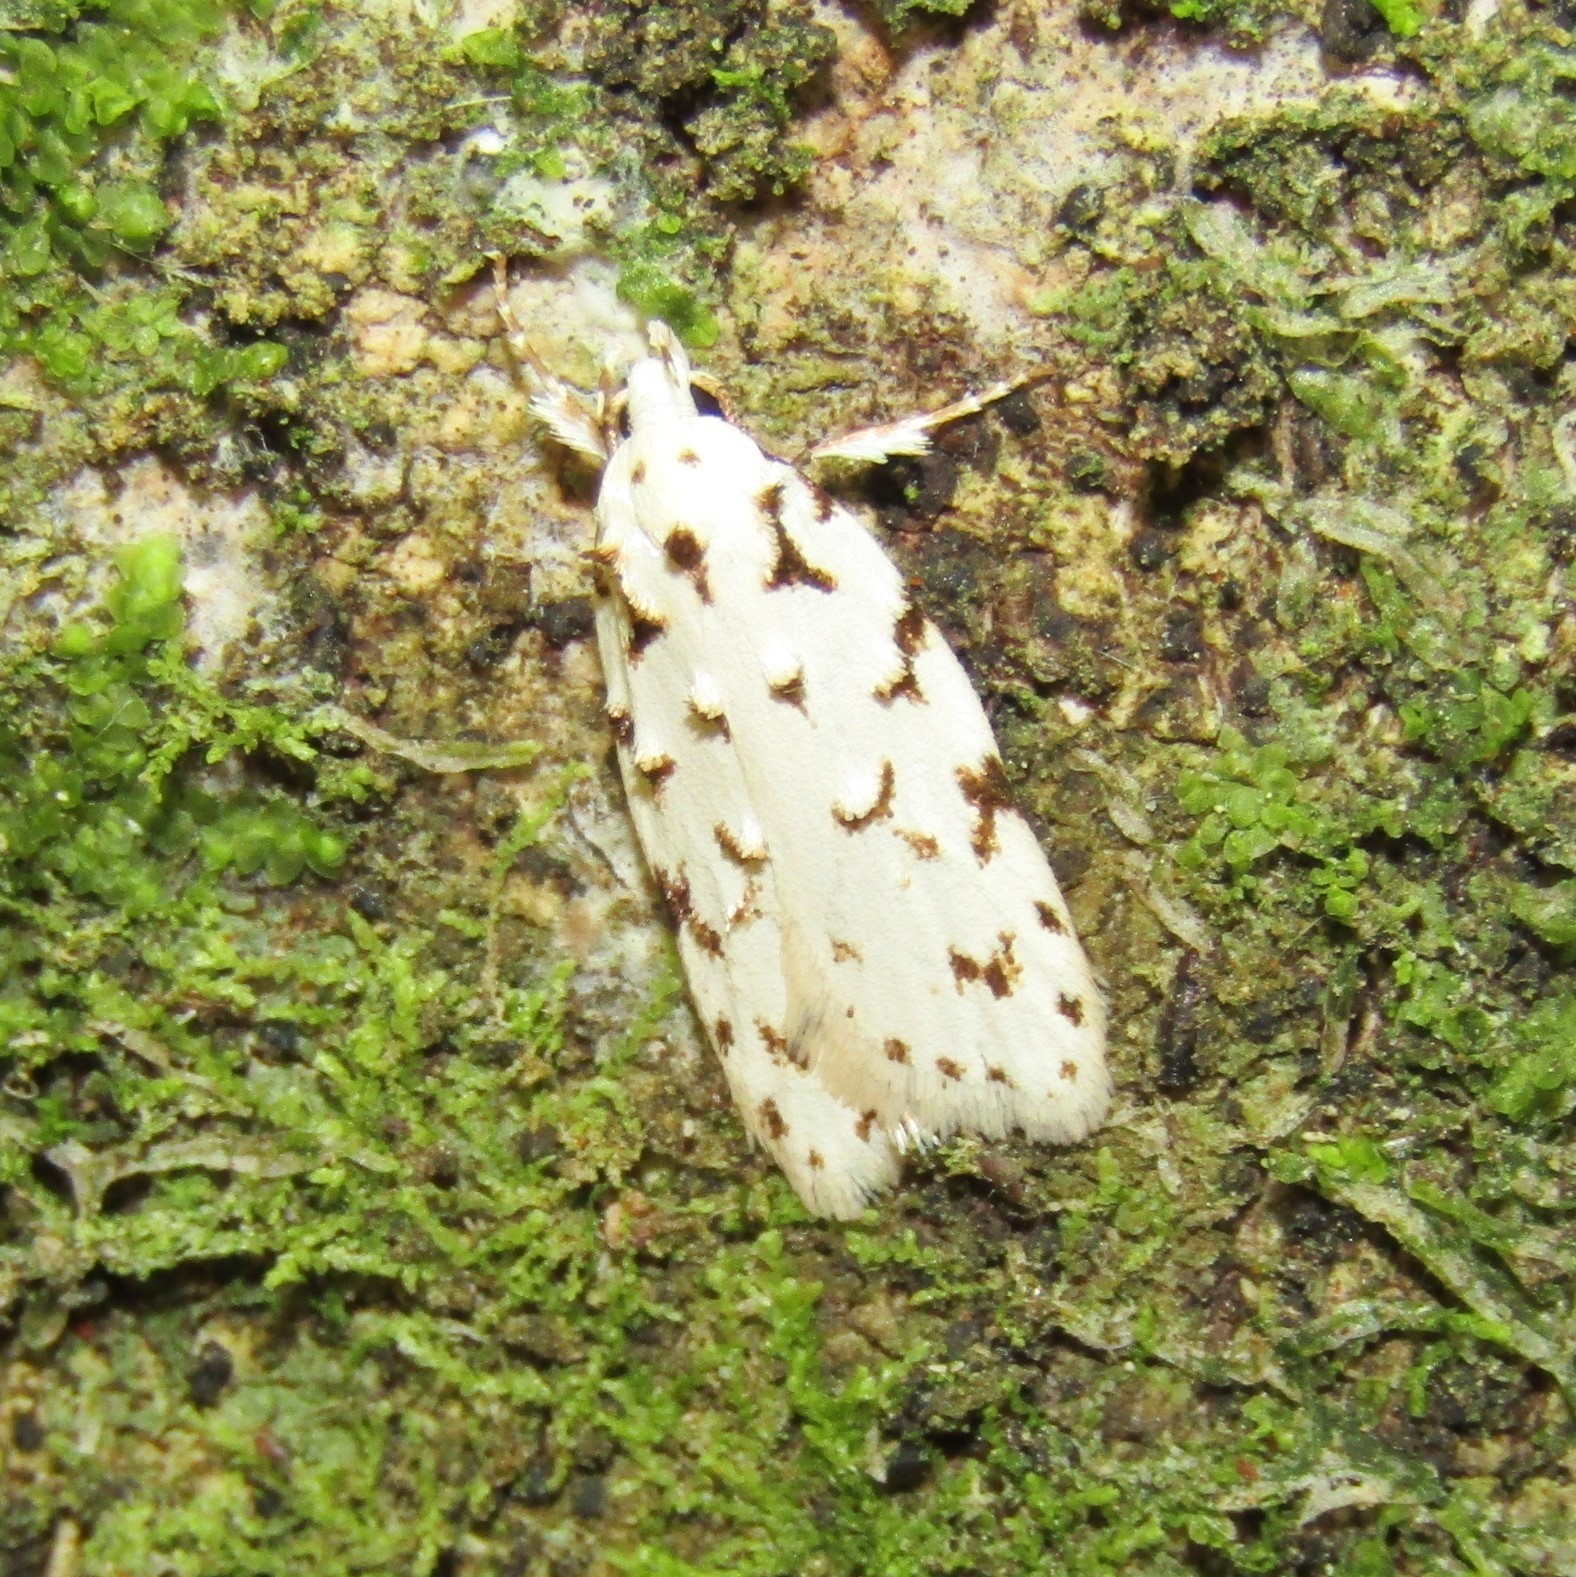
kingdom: Animalia
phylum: Arthropoda
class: Insecta
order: Lepidoptera
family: Oecophoridae
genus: Izatha
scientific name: Izatha hudsoni
